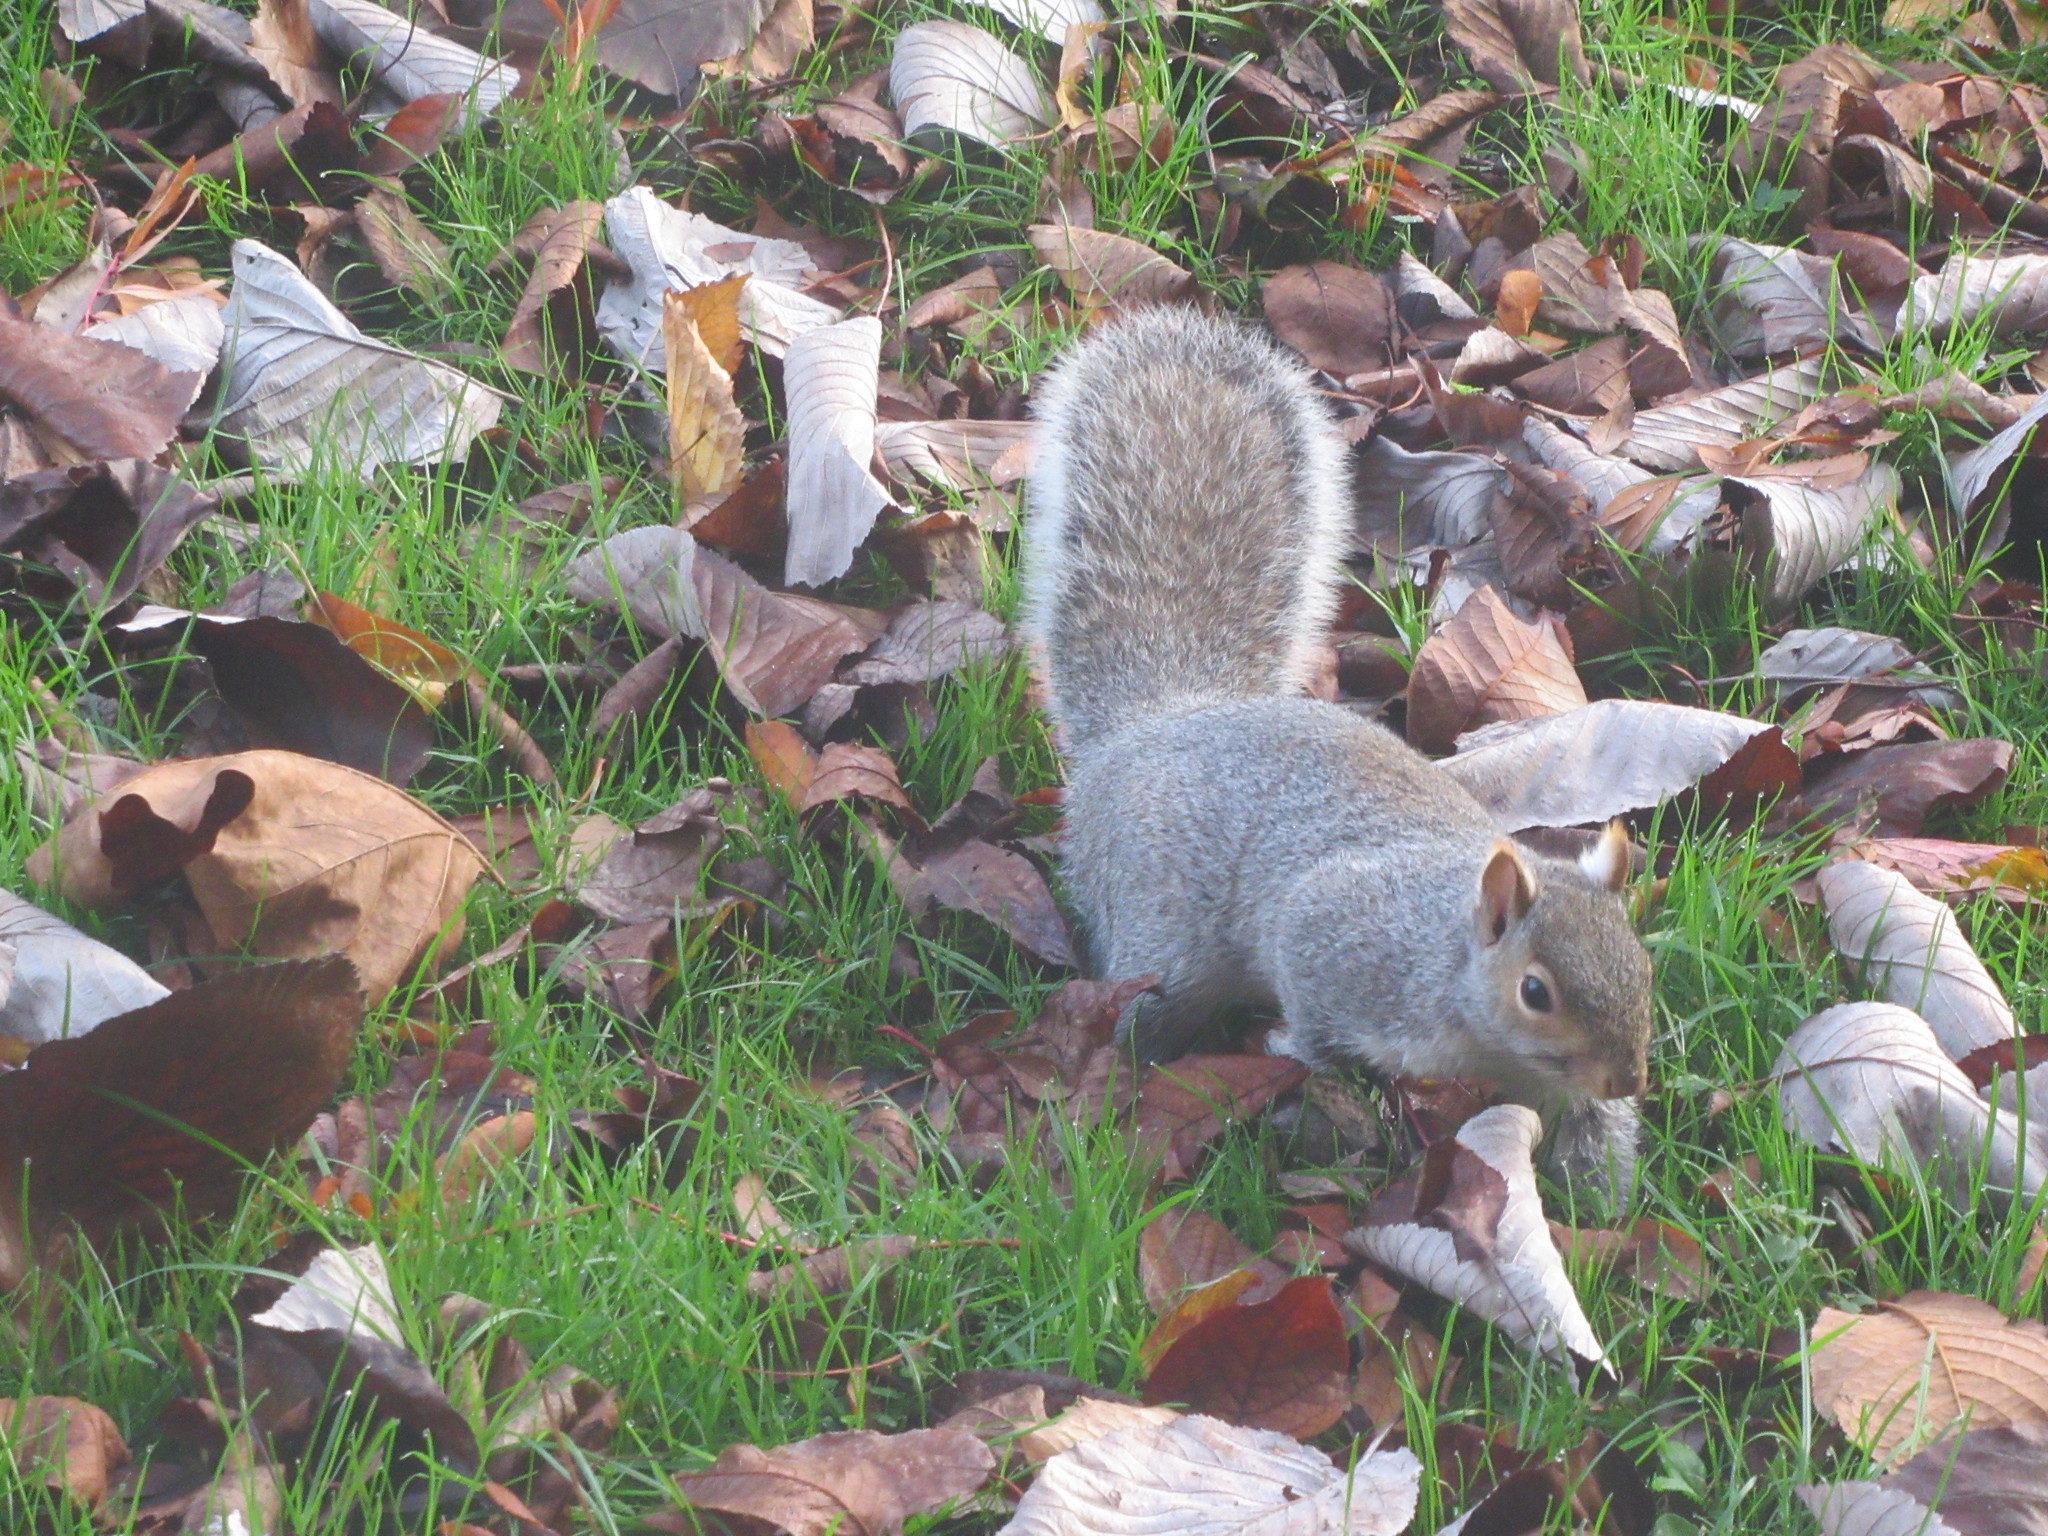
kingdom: Animalia
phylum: Chordata
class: Mammalia
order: Rodentia
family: Sciuridae
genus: Sciurus
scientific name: Sciurus carolinensis
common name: Eastern gray squirrel
